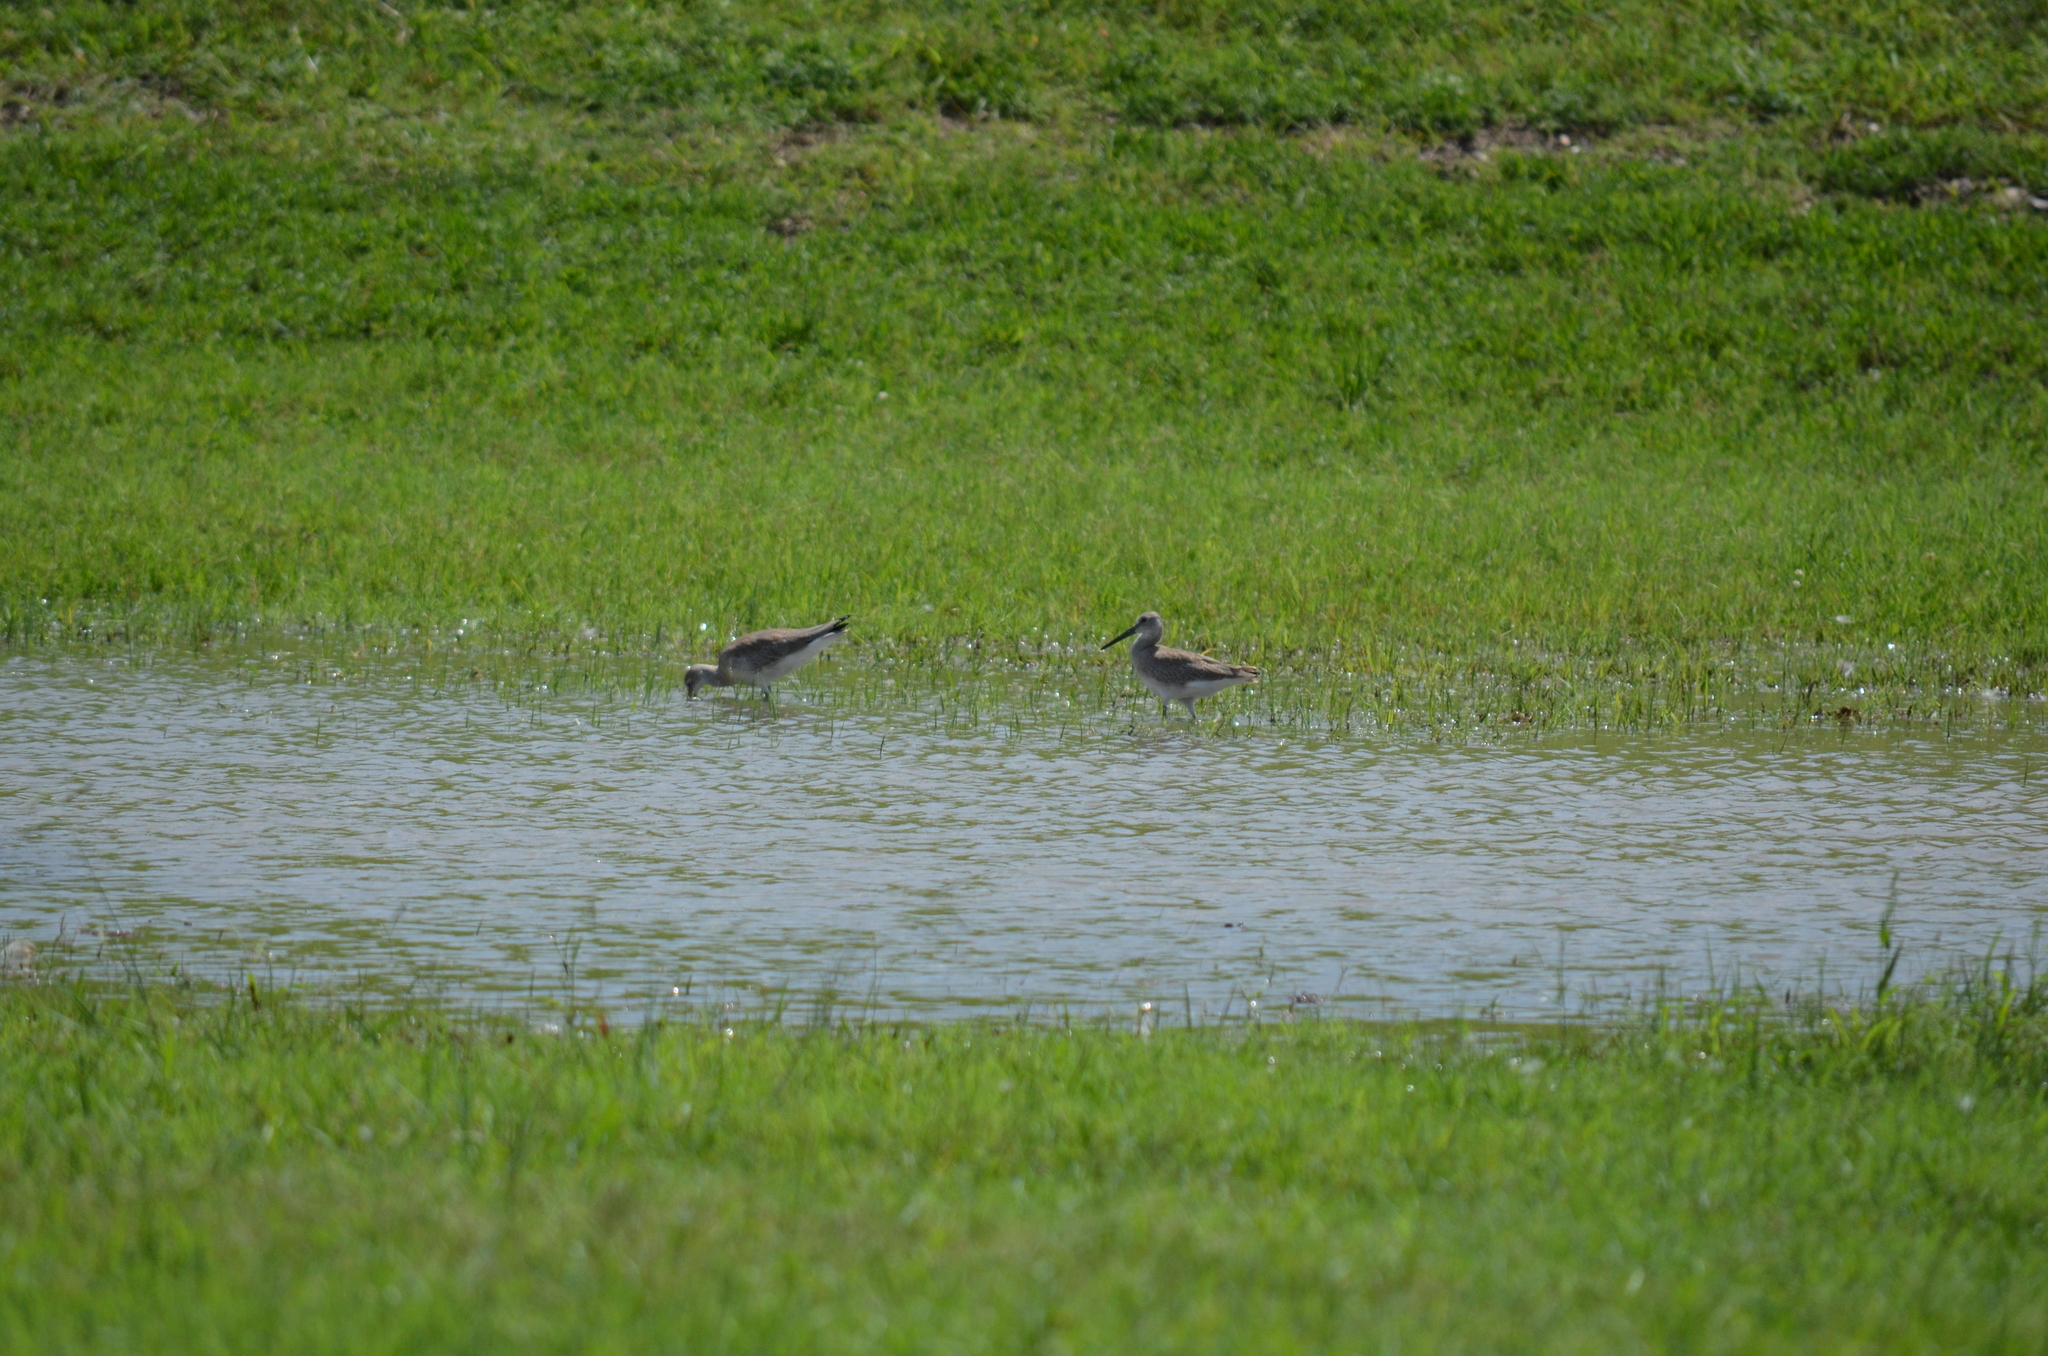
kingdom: Animalia
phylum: Chordata
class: Aves
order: Charadriiformes
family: Scolopacidae
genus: Tringa
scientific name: Tringa semipalmata
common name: Willet
